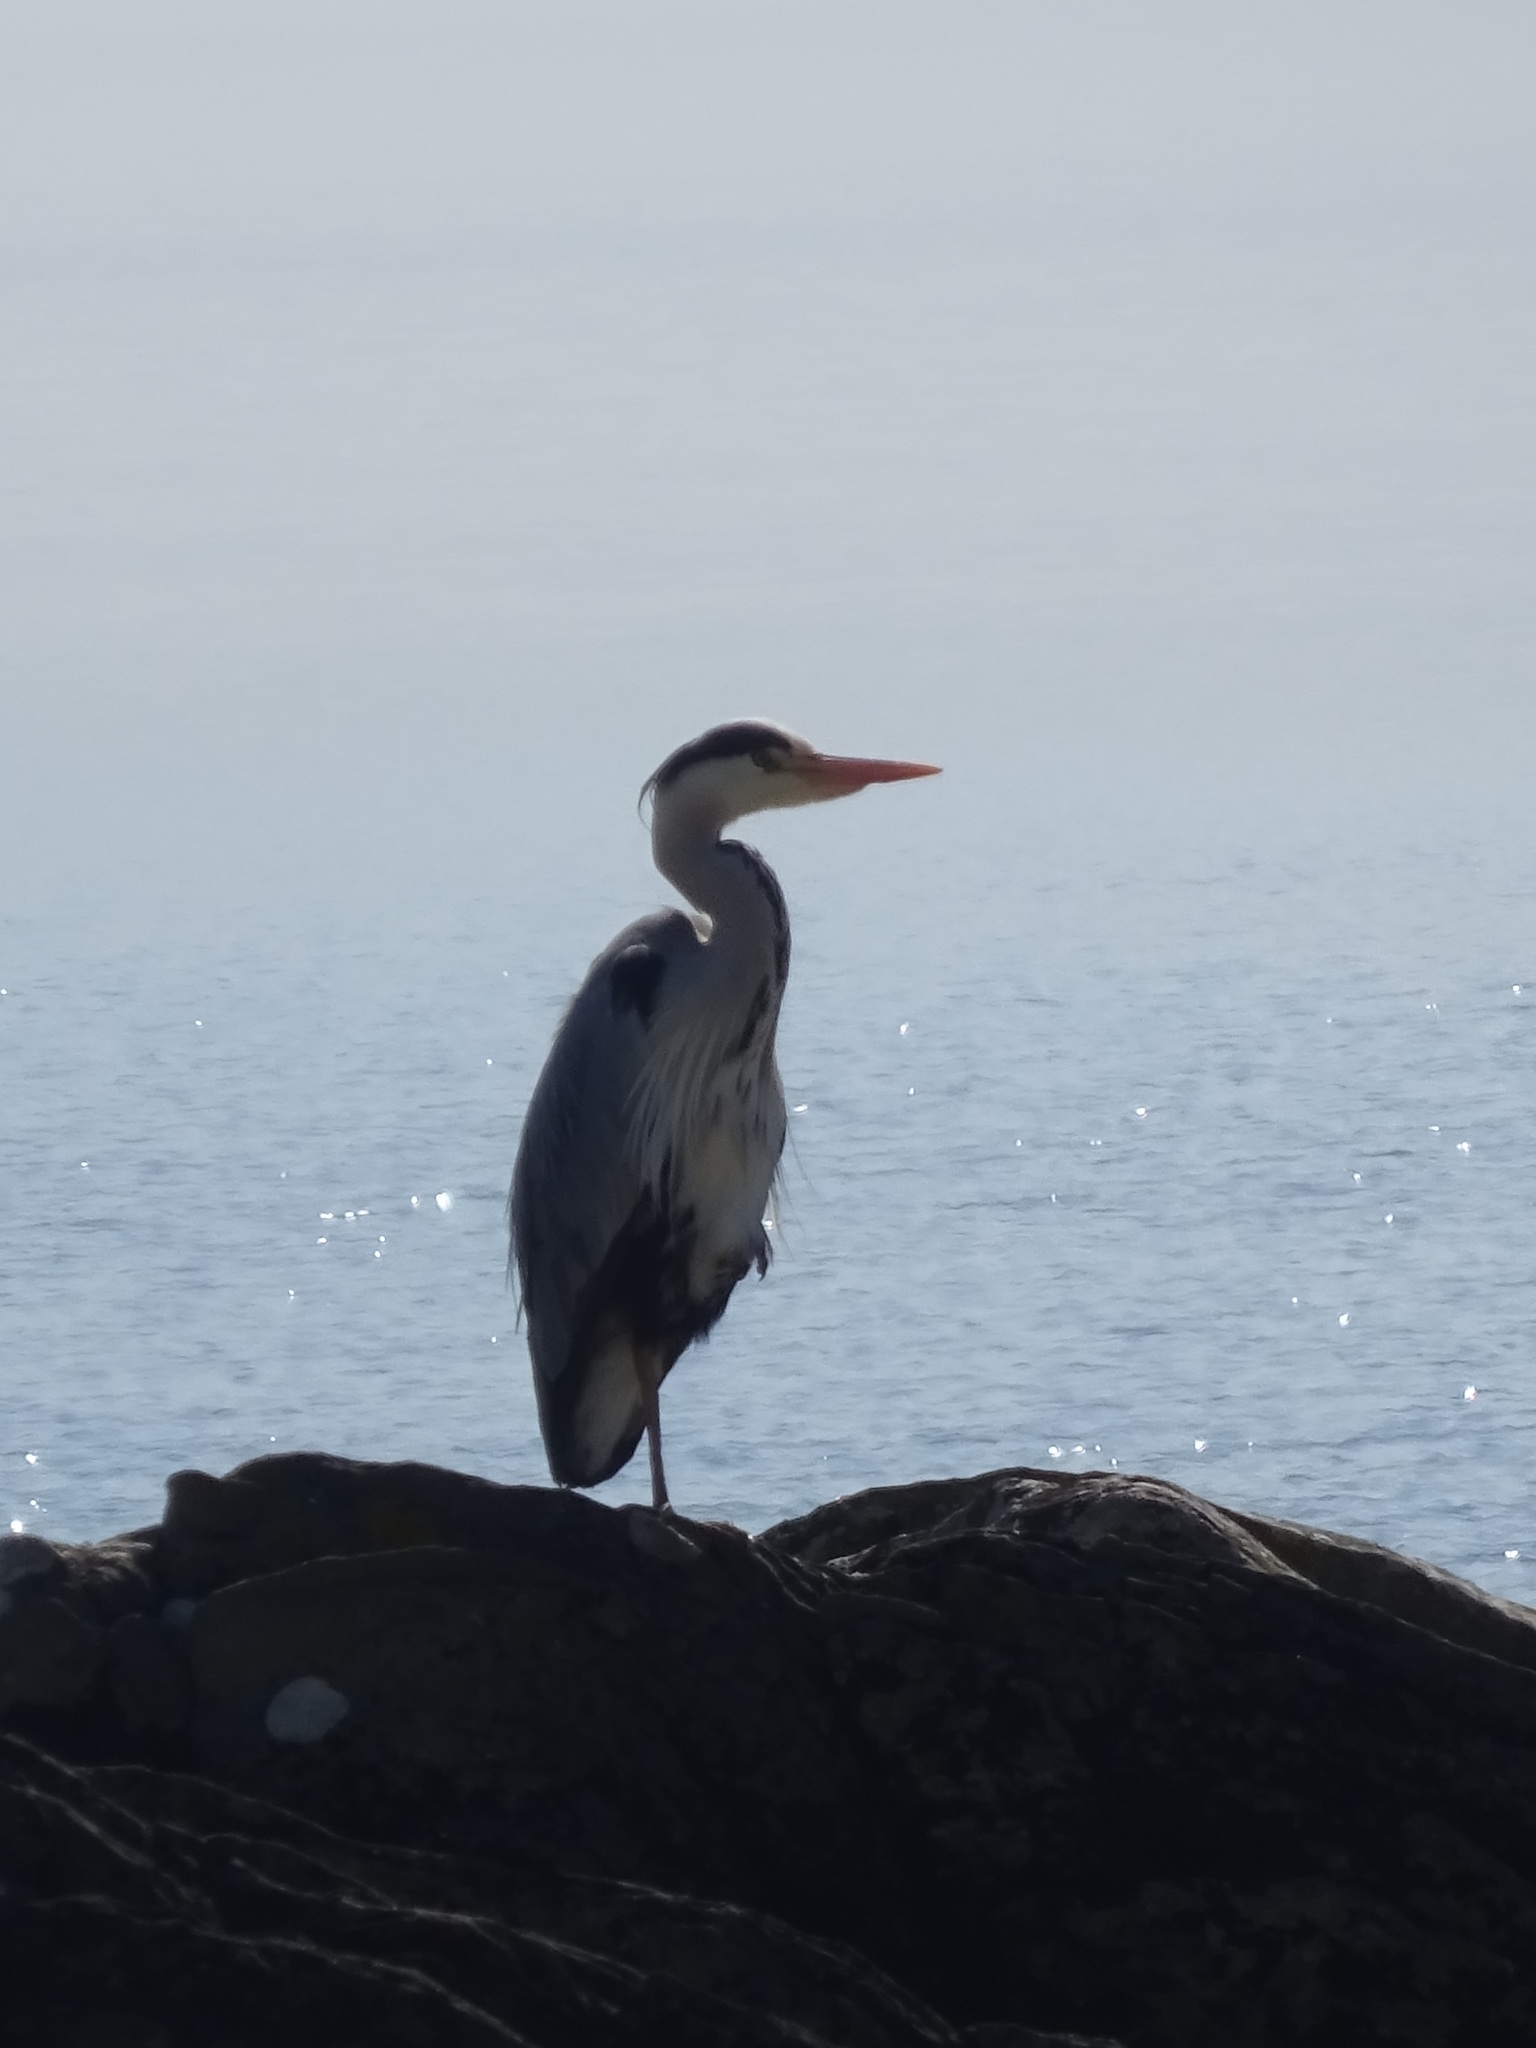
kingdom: Animalia
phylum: Chordata
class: Aves
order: Pelecaniformes
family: Ardeidae
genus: Ardea
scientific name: Ardea cinerea
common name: Grey heron
